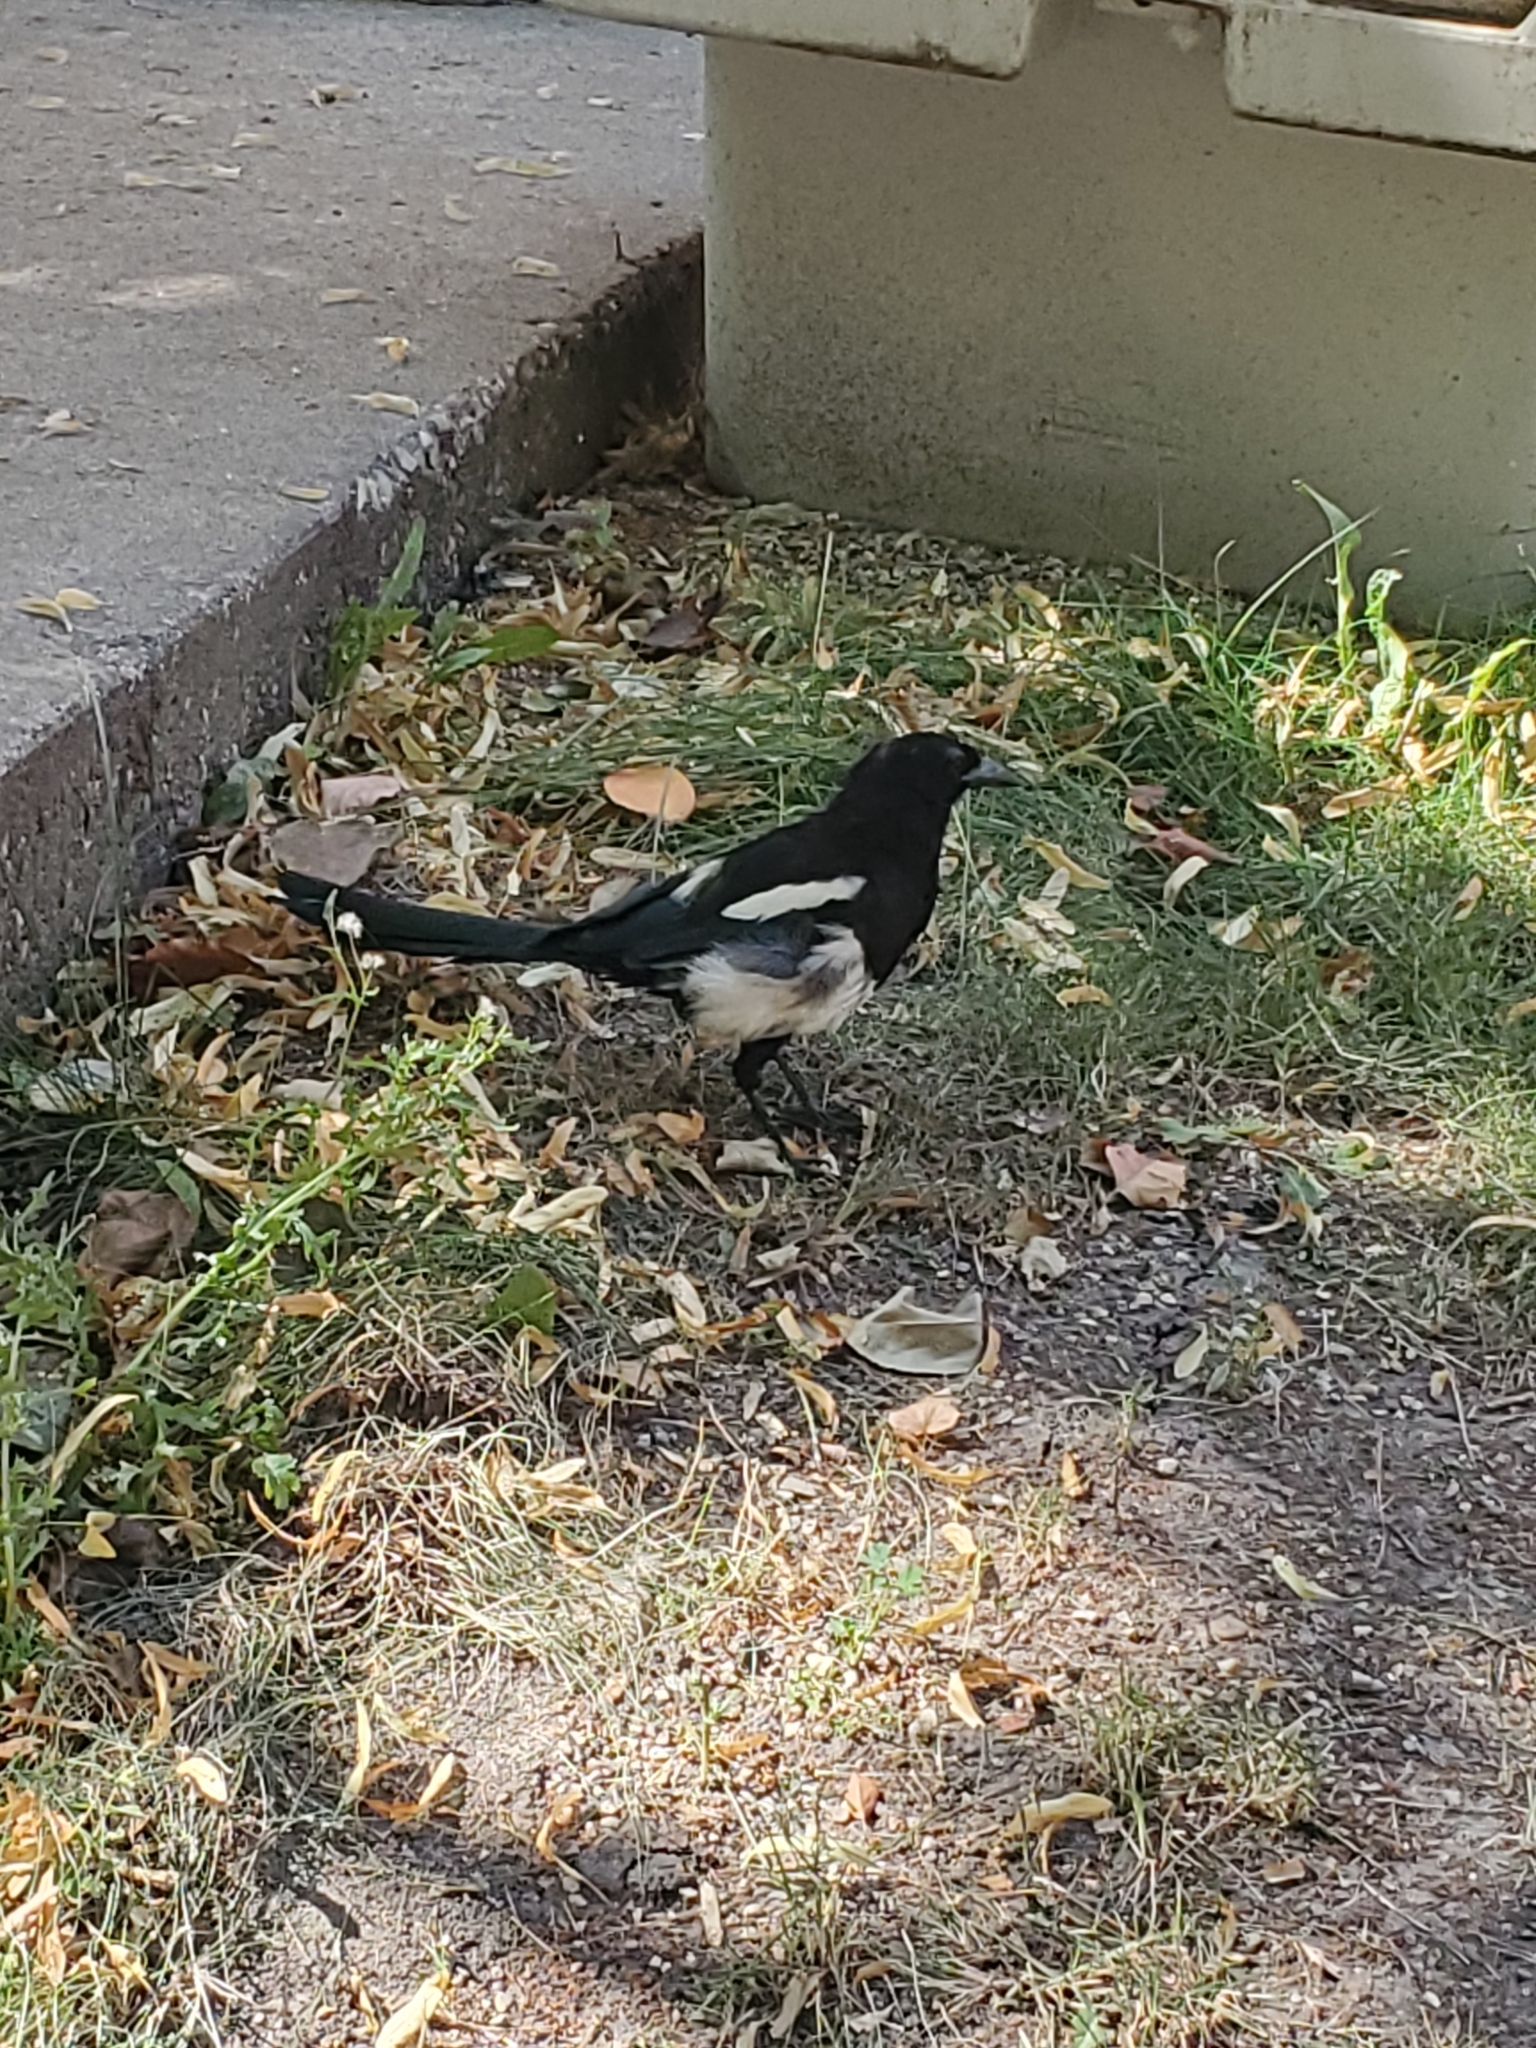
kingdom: Animalia
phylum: Chordata
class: Aves
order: Passeriformes
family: Corvidae
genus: Pica
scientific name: Pica hudsonia
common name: Black-billed magpie
